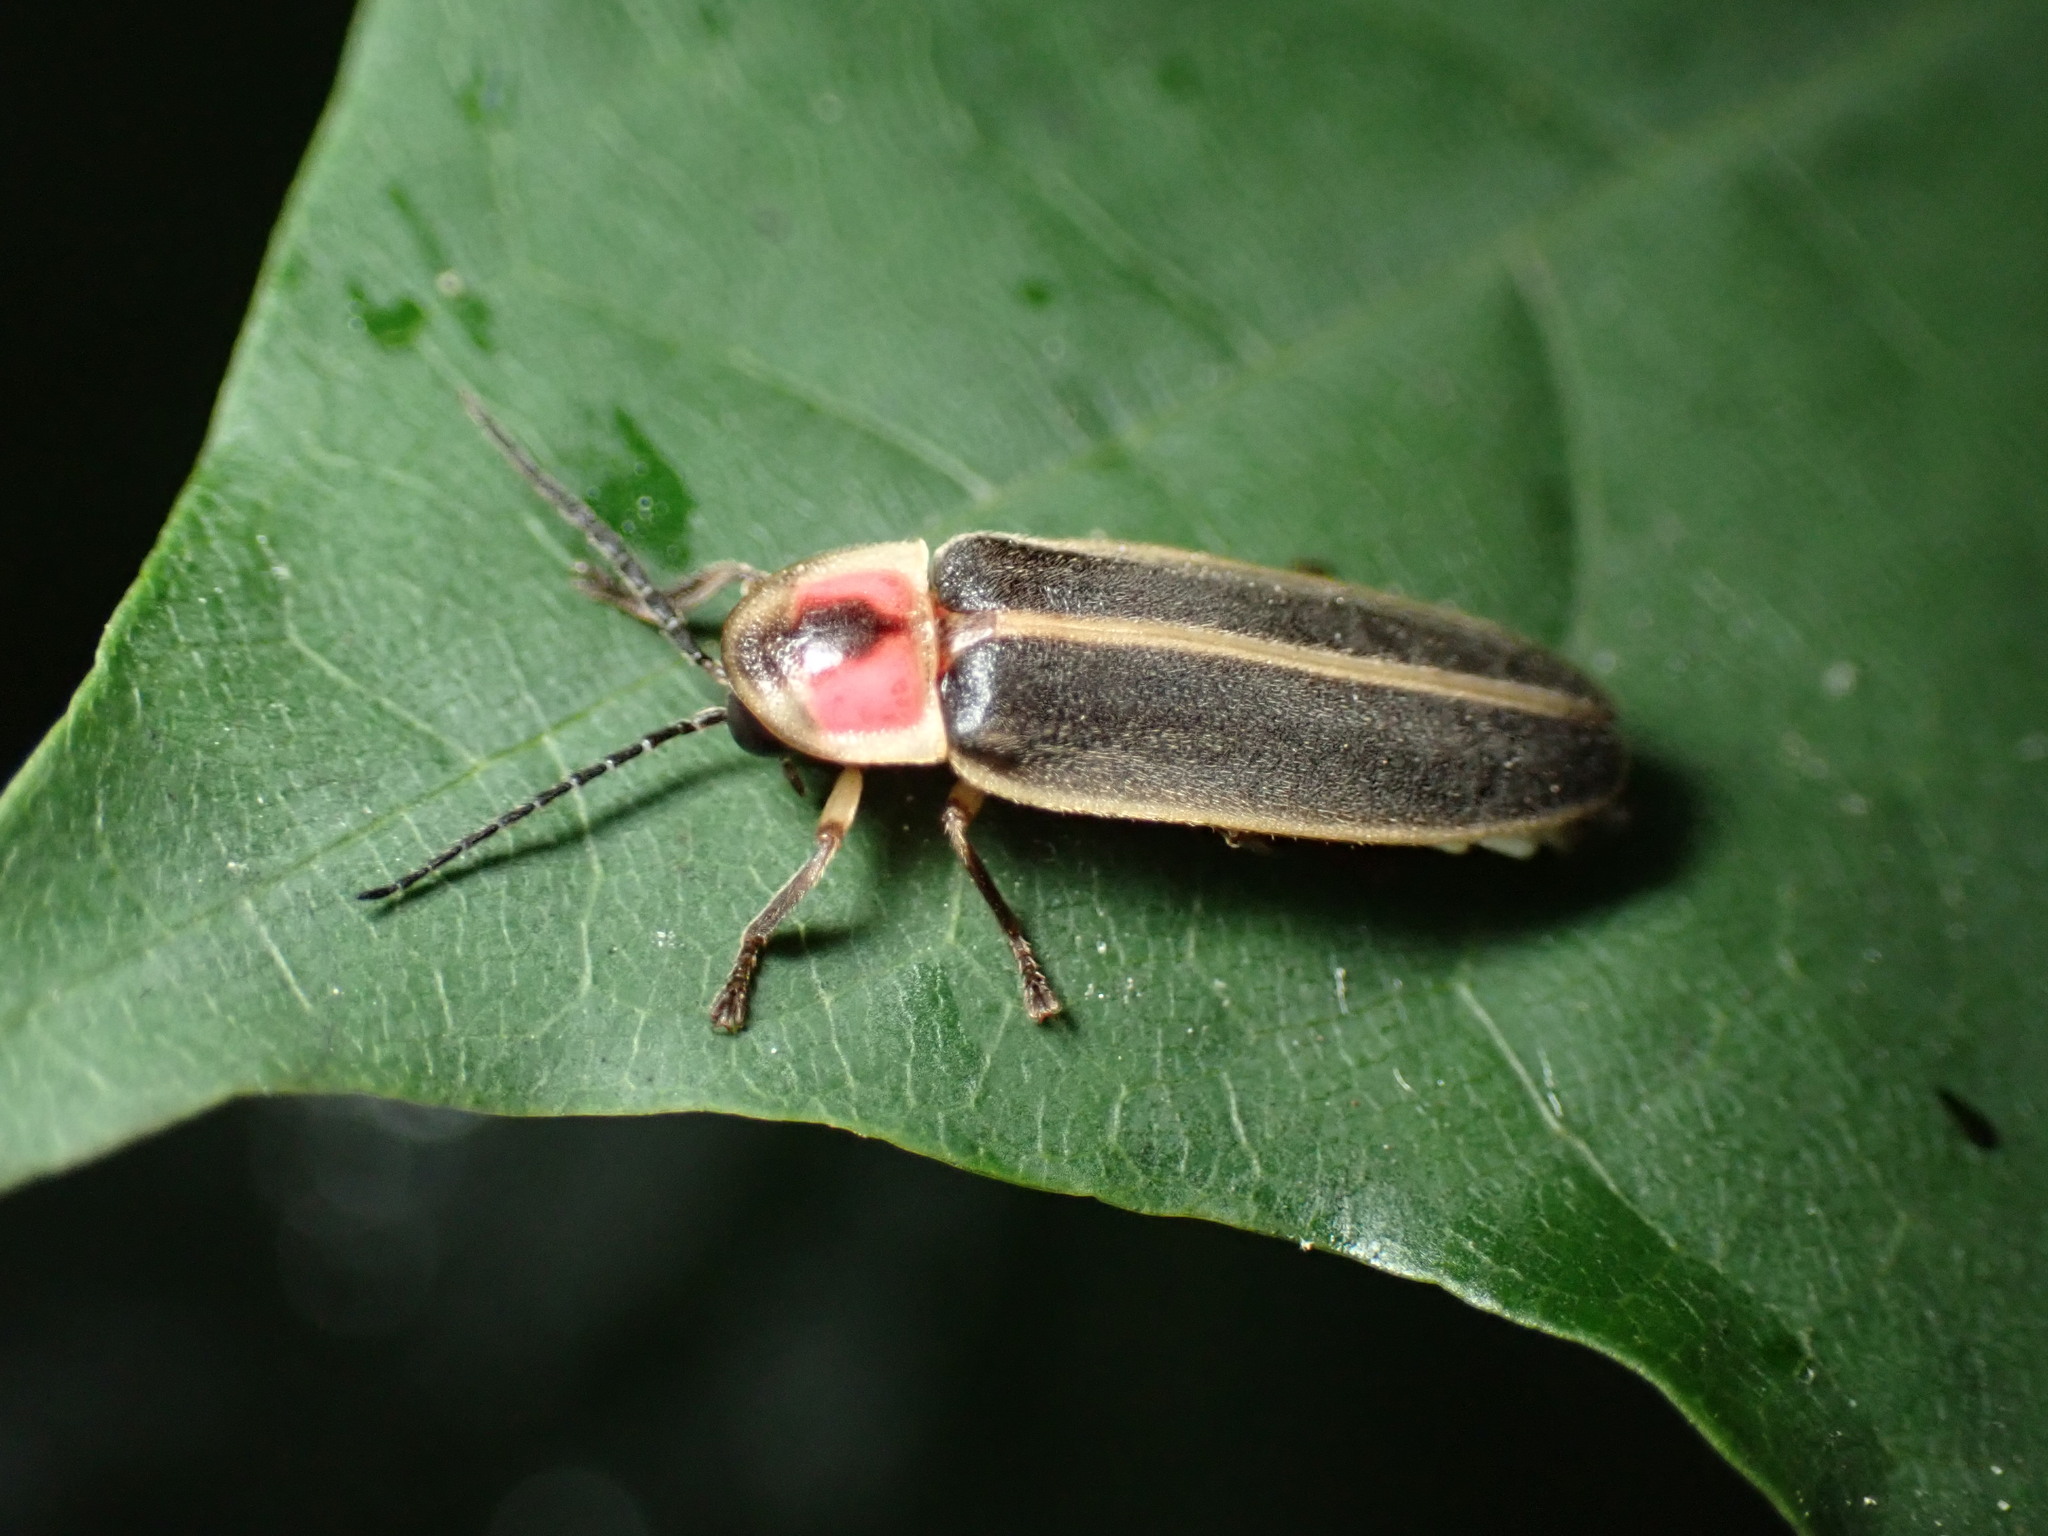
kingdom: Animalia
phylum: Arthropoda
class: Insecta
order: Coleoptera
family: Lampyridae
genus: Photinus
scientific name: Photinus pyralis
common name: Big dipper firefly
